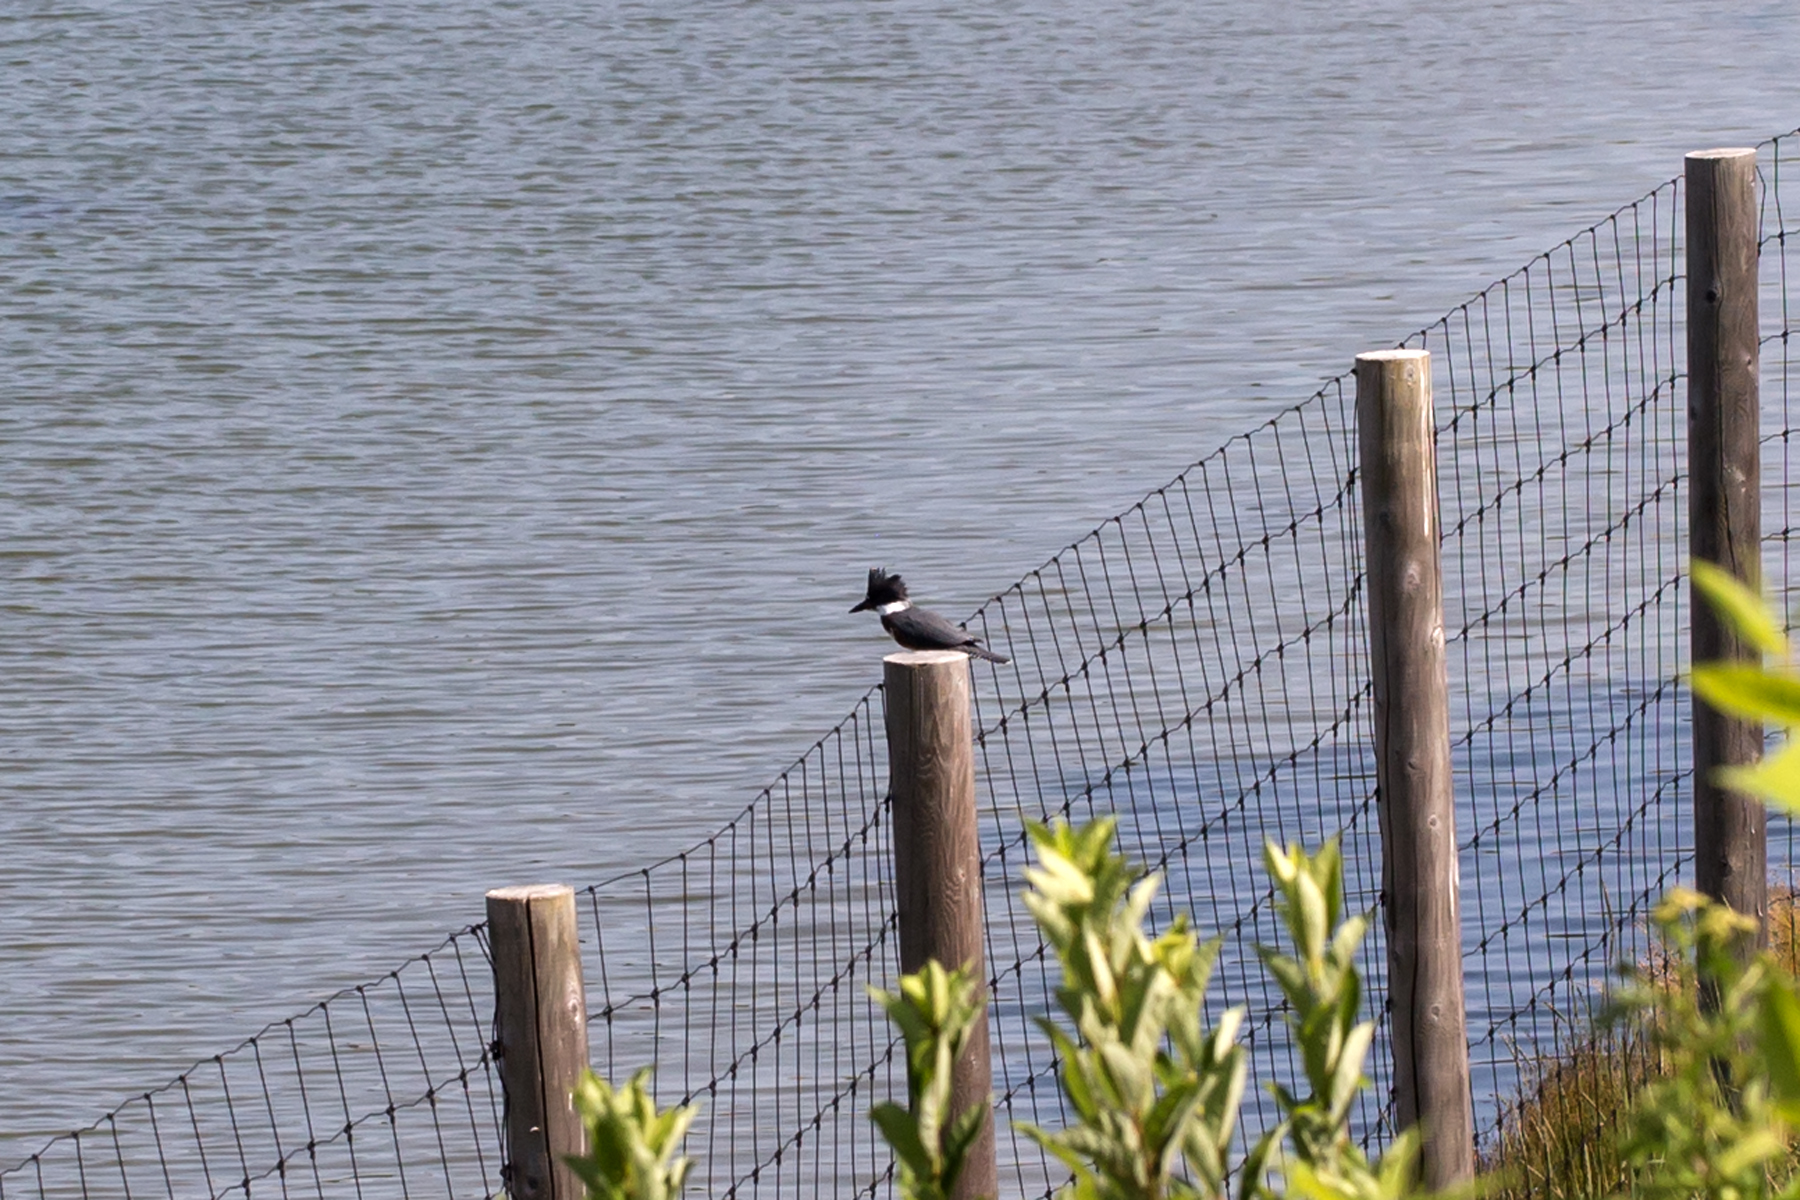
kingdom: Animalia
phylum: Chordata
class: Aves
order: Coraciiformes
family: Alcedinidae
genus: Megaceryle
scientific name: Megaceryle alcyon
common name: Belted kingfisher
